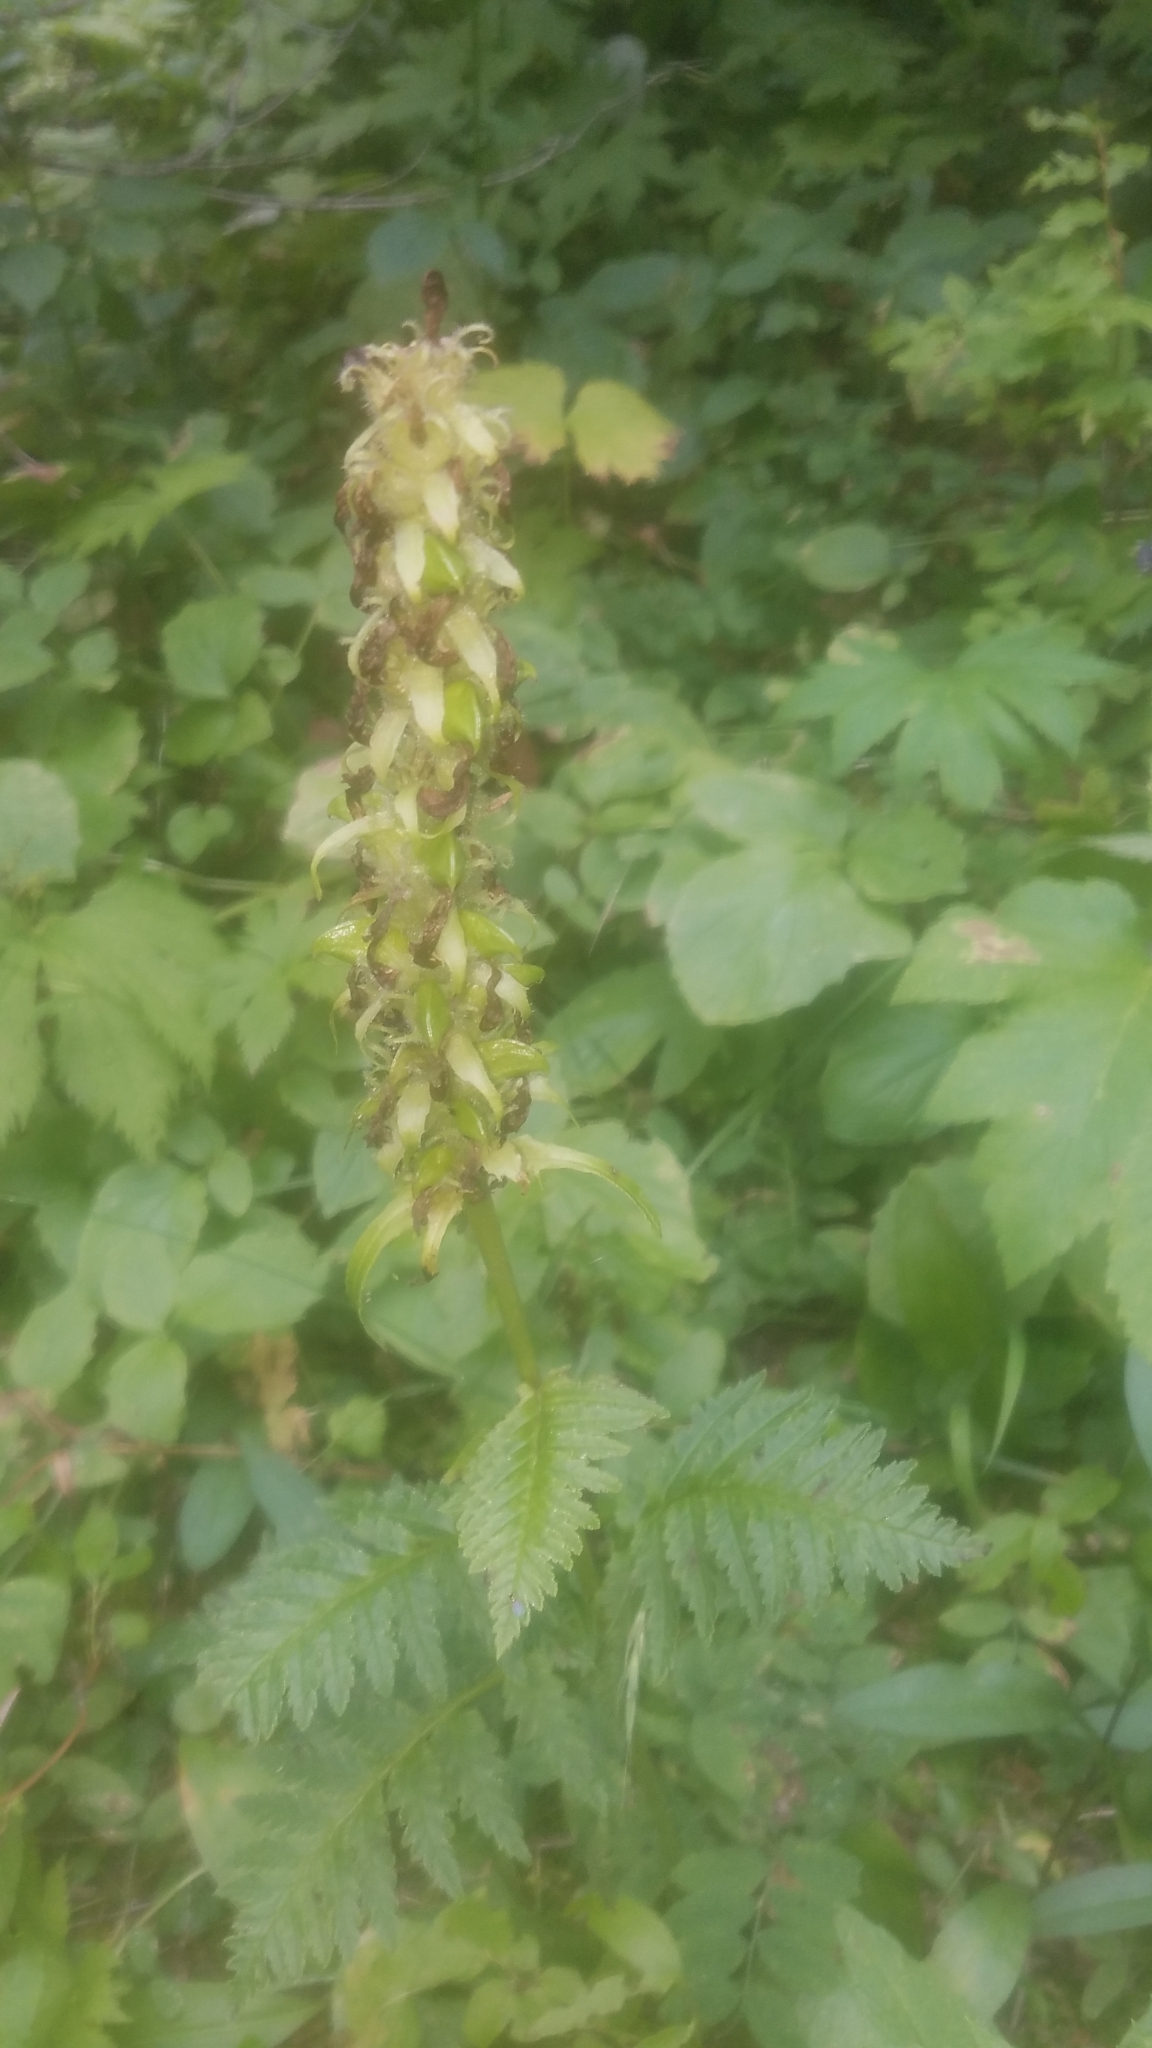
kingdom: Plantae
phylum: Tracheophyta
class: Magnoliopsida
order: Lamiales
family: Orobanchaceae
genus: Pedicularis
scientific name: Pedicularis bracteosa
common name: Bracted lousewort
